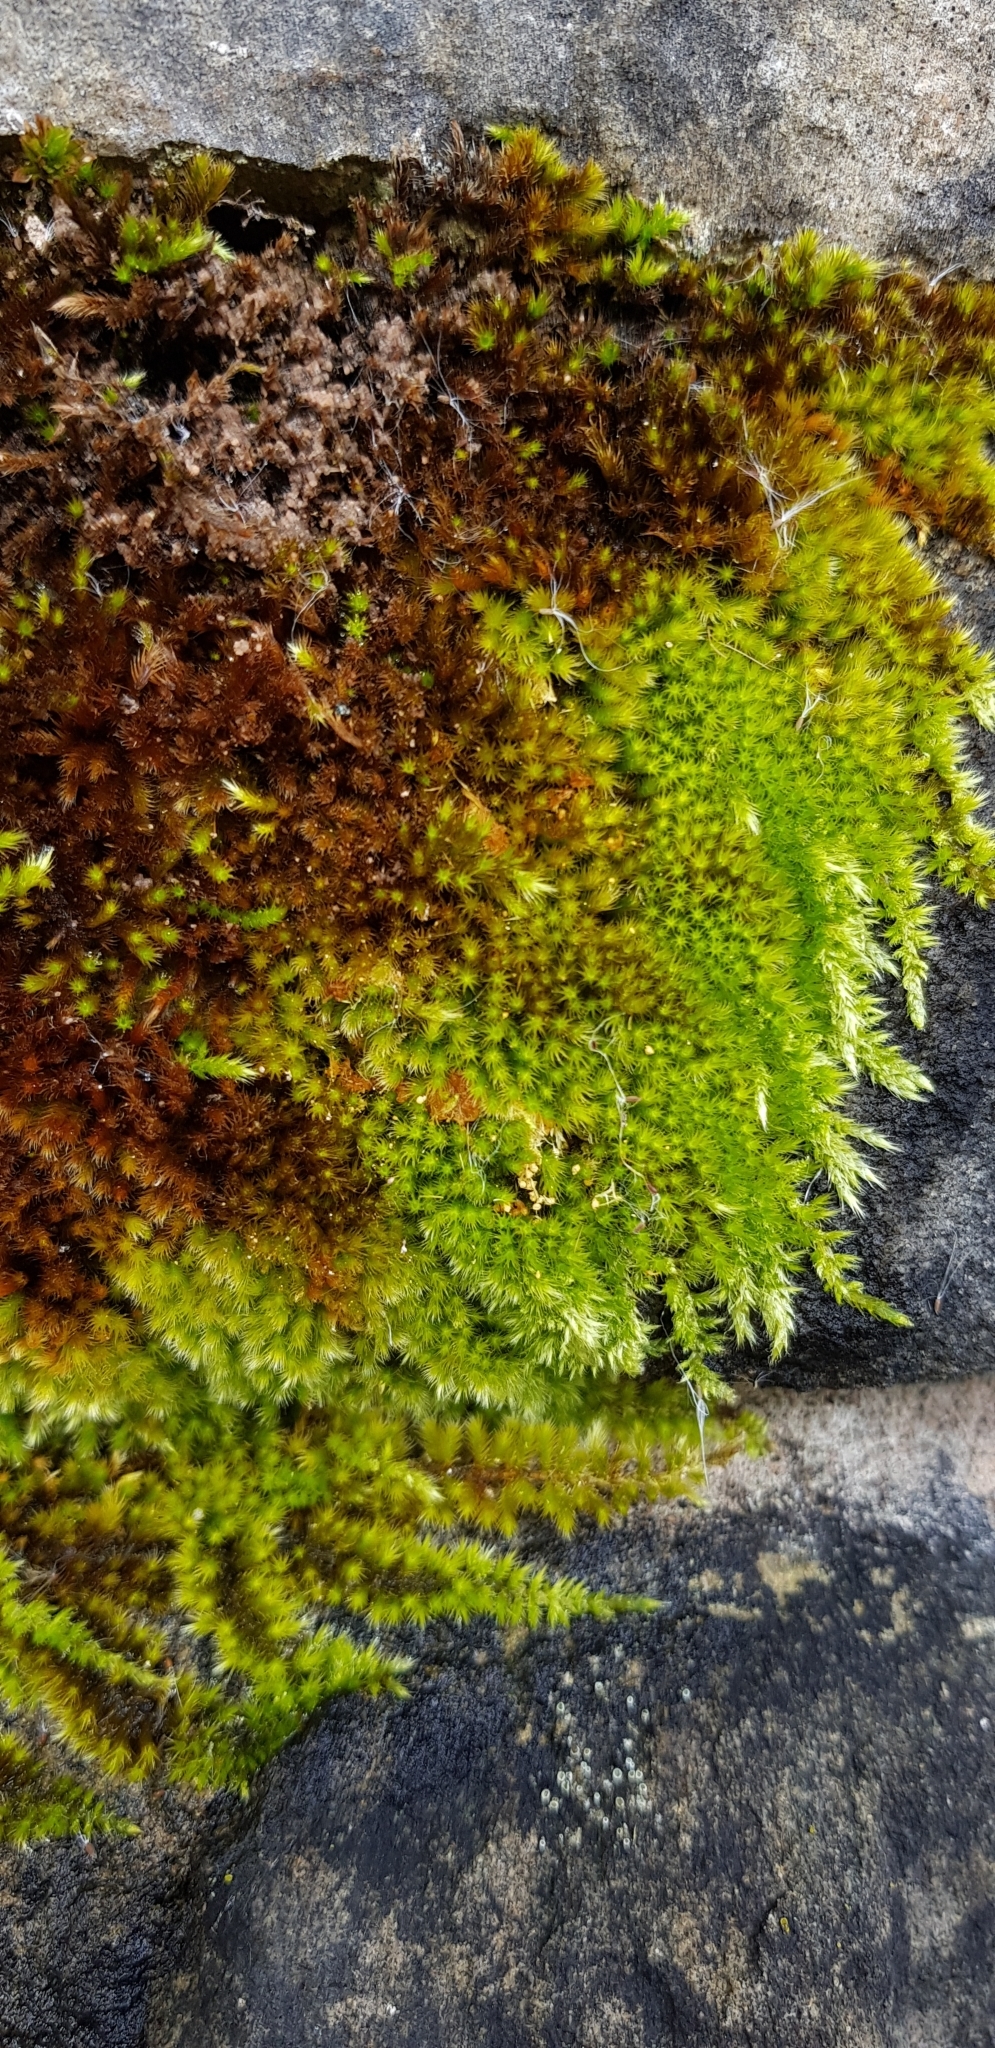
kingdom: Plantae
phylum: Bryophyta
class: Bryopsida
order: Hypnales
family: Brachytheciaceae
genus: Homalothecium
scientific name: Homalothecium sericeum
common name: Silky wall feather-moss
